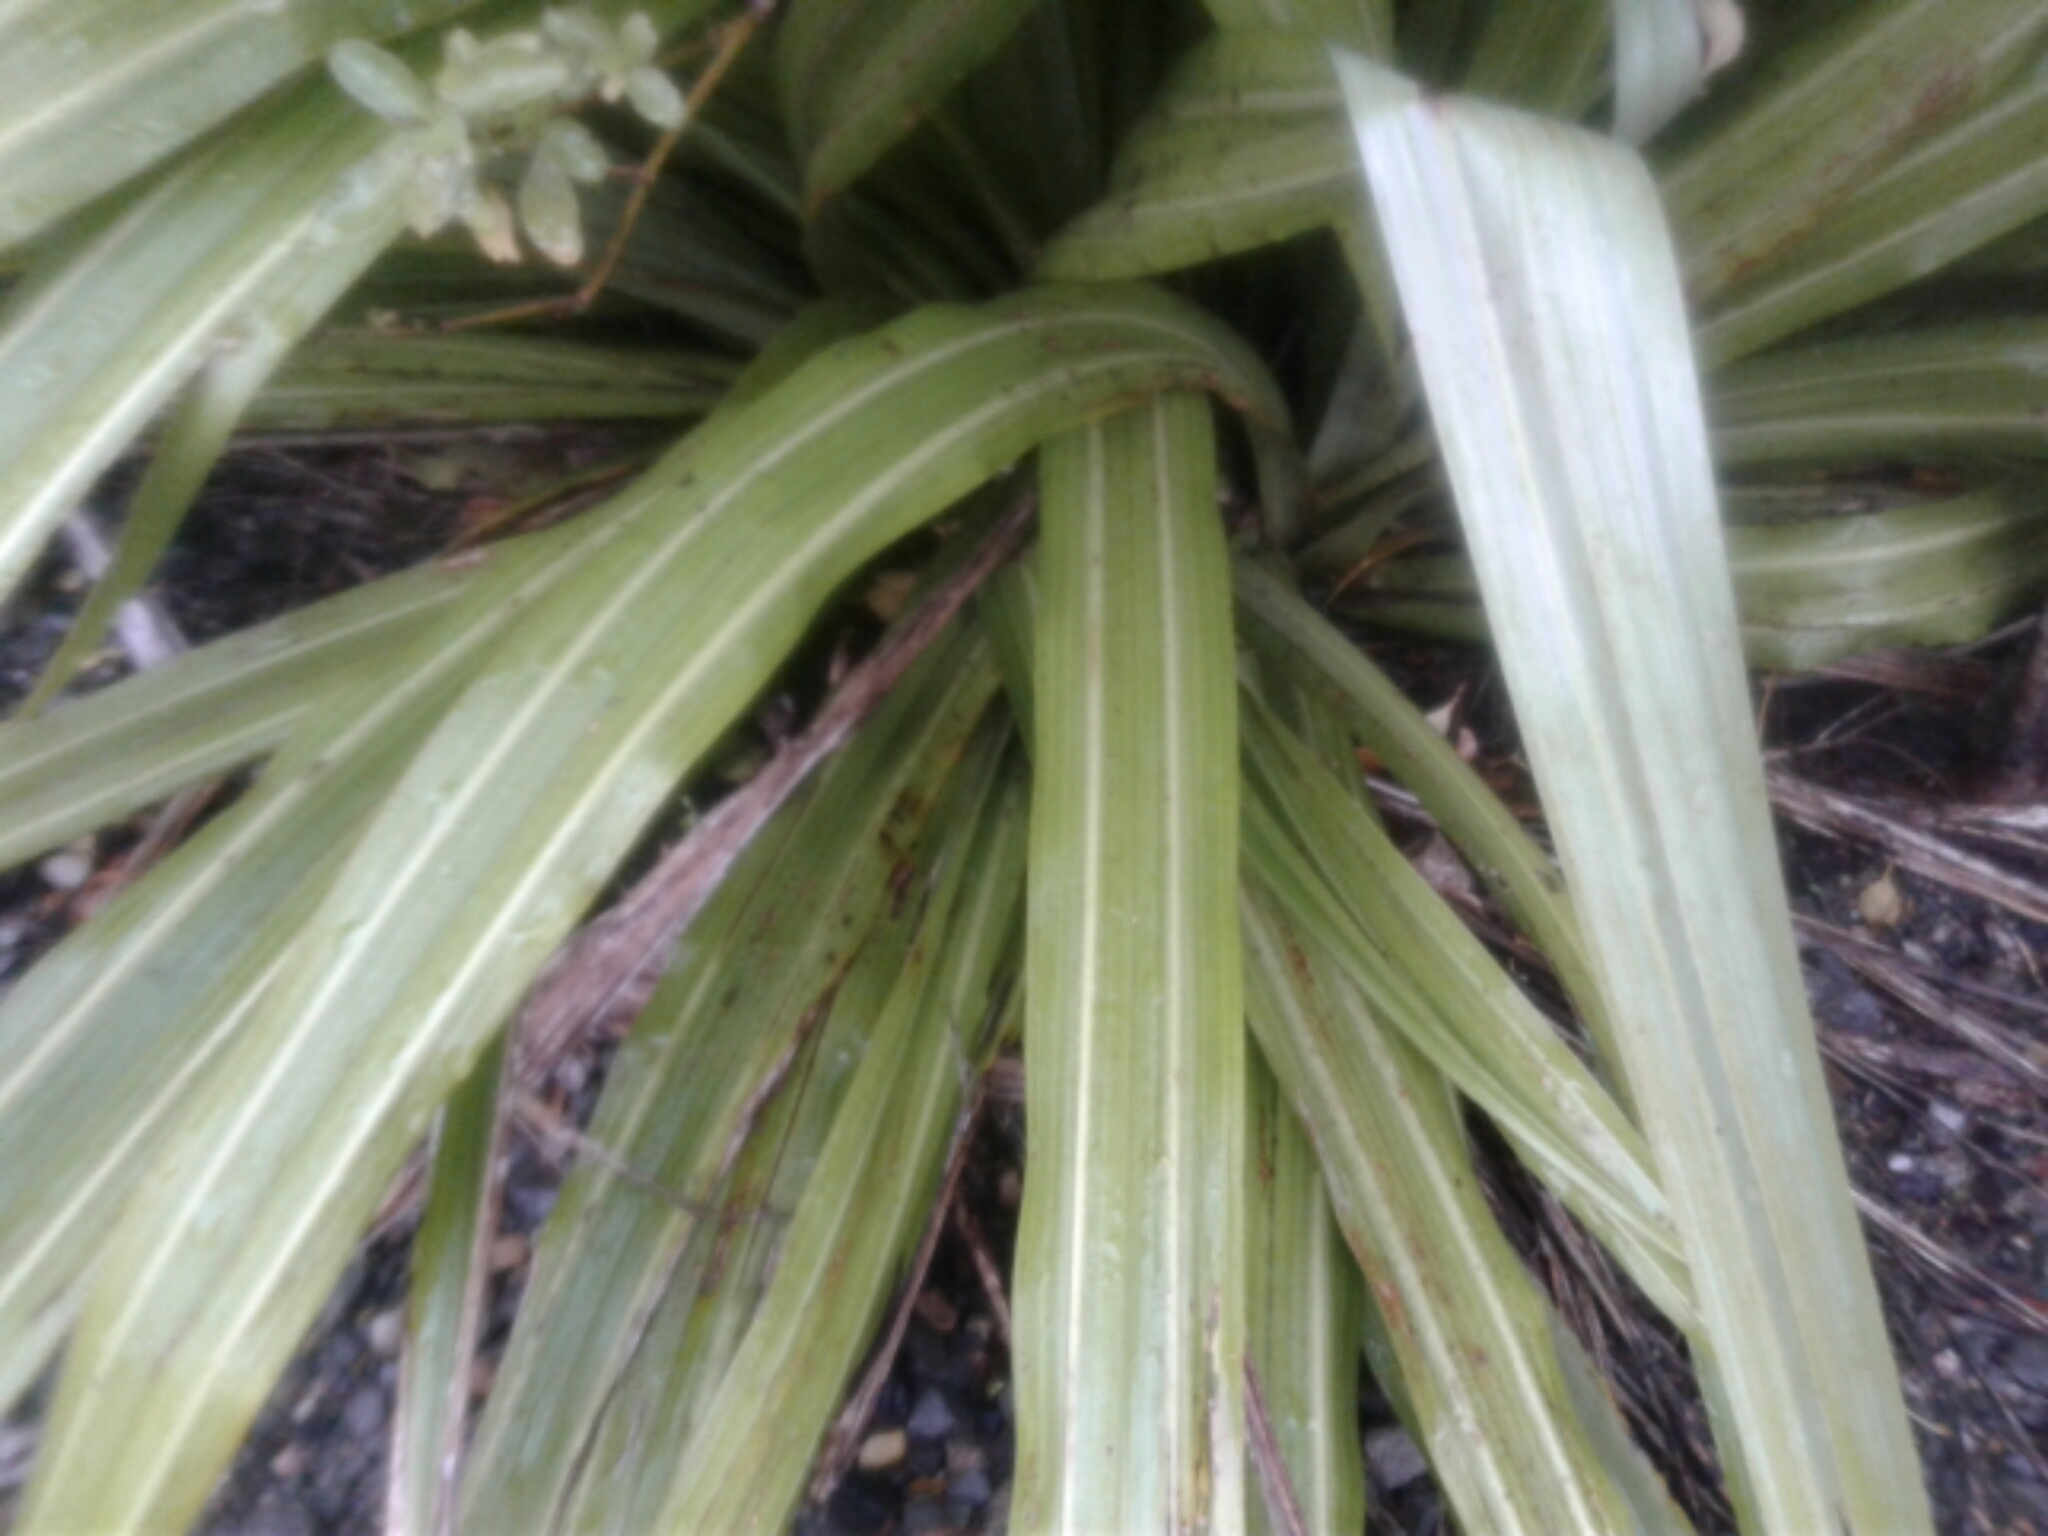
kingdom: Plantae
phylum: Tracheophyta
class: Liliopsida
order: Asparagales
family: Asteliaceae
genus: Astelia
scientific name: Astelia fragrans
